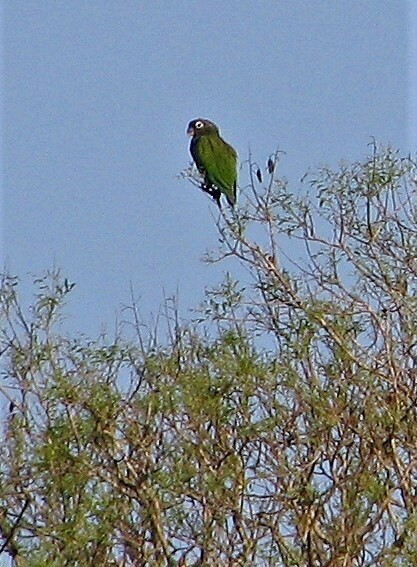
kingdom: Animalia
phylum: Chordata
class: Aves
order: Psittaciformes
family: Psittacidae
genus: Pionus
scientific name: Pionus maximiliani
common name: Scaly-headed parrot
